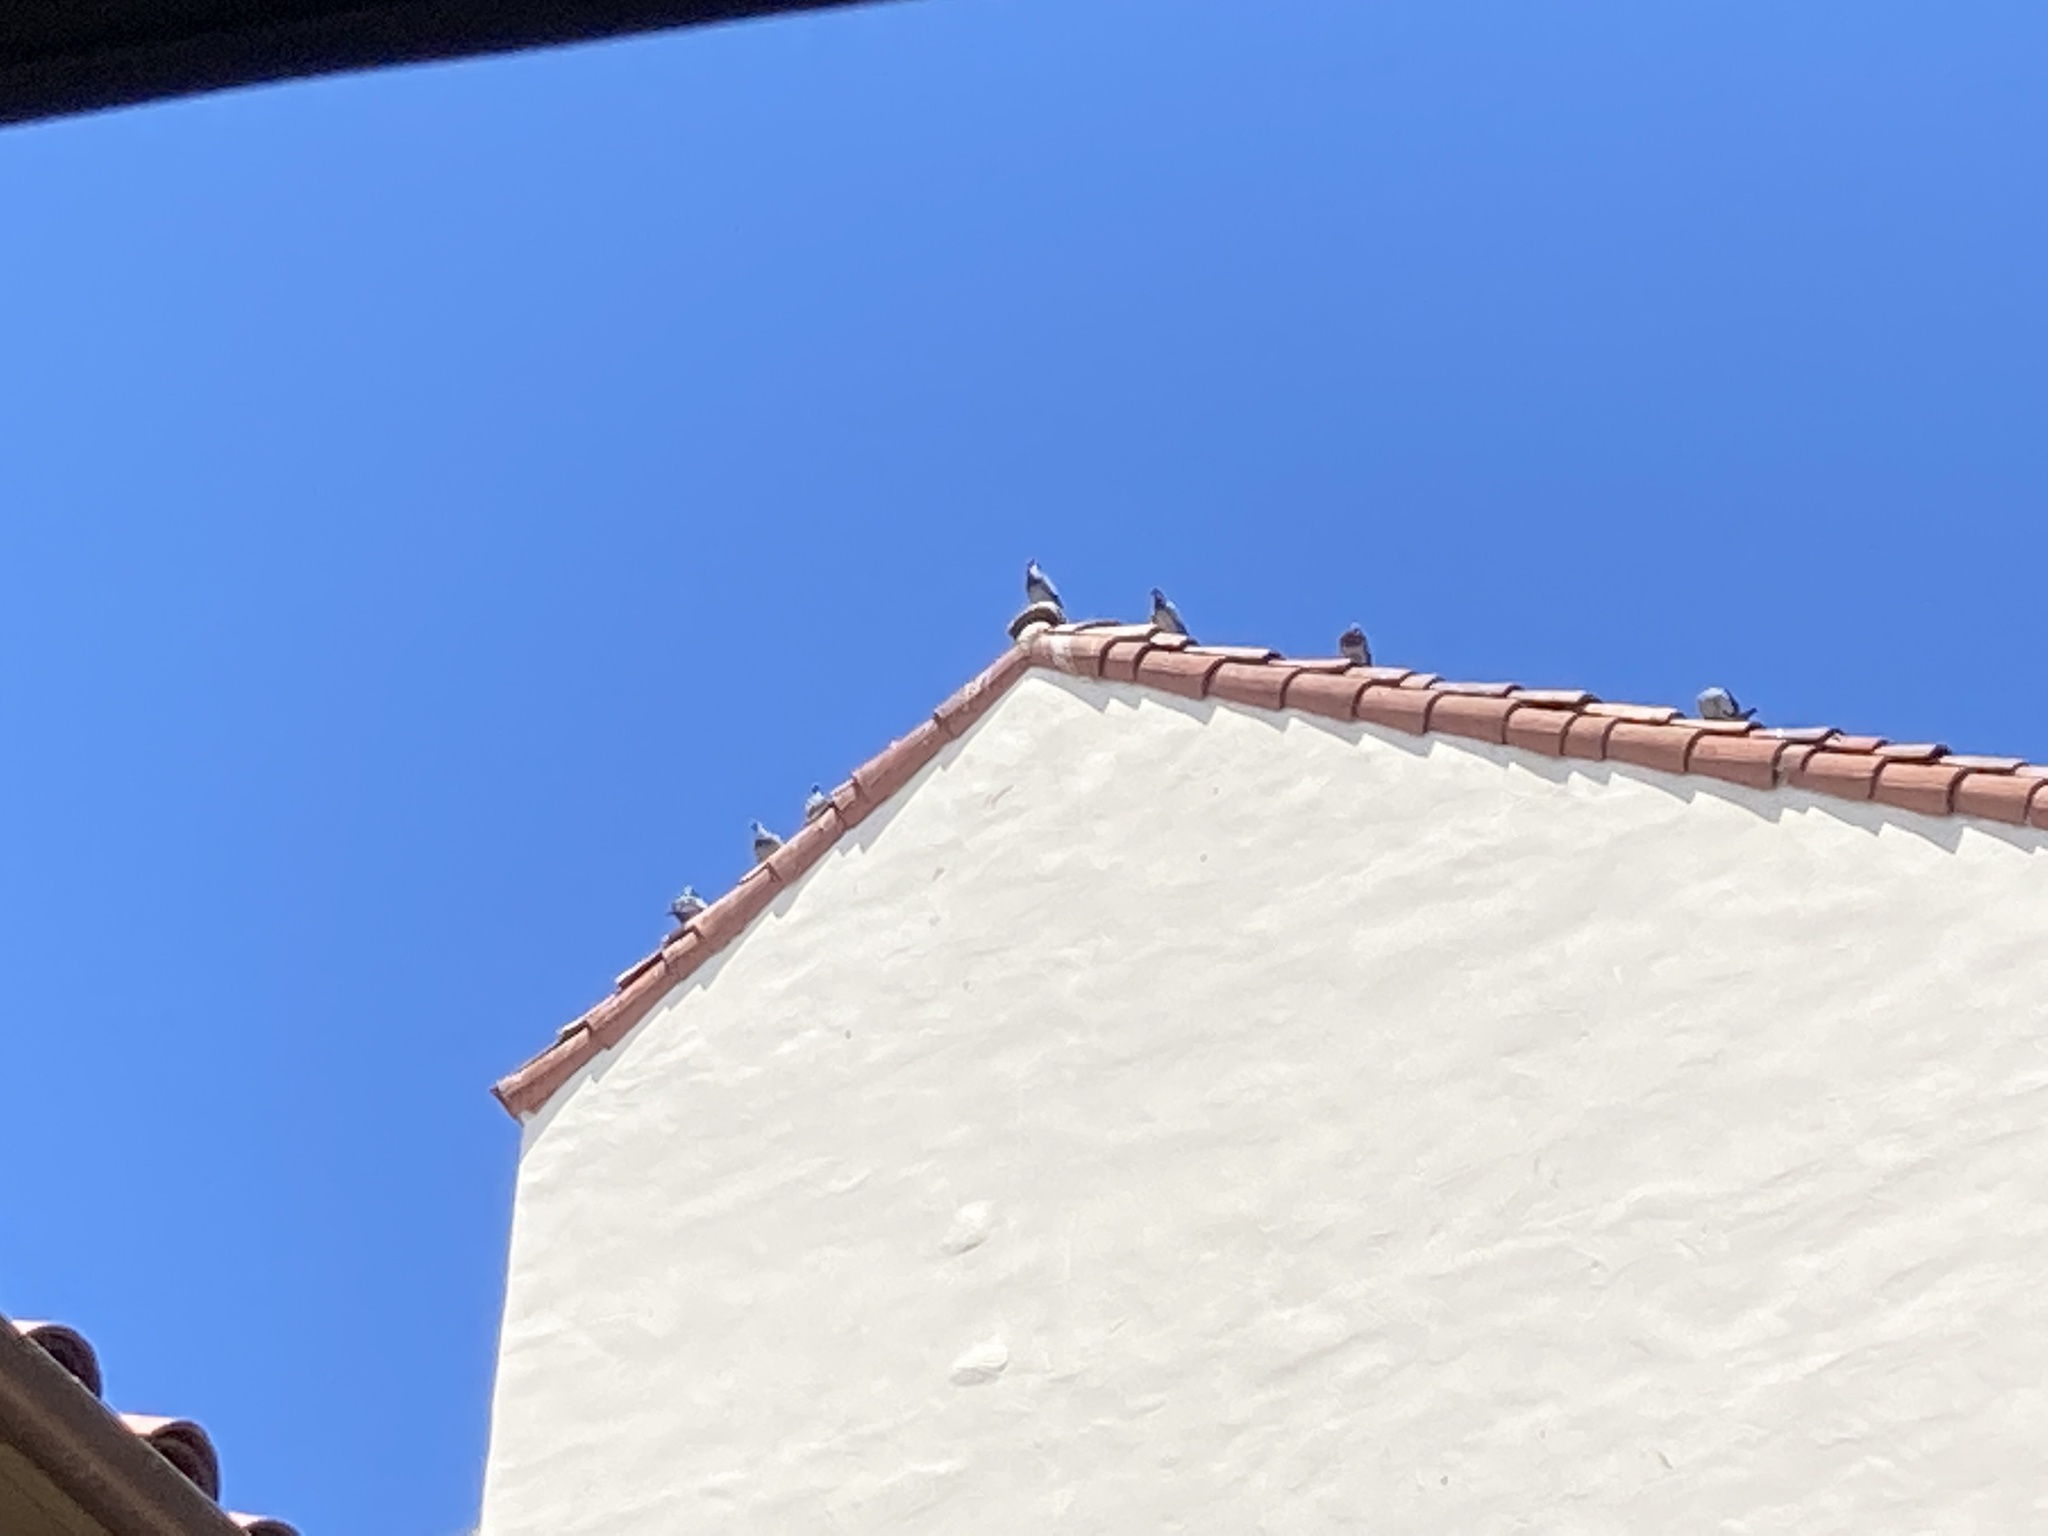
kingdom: Animalia
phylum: Chordata
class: Aves
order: Columbiformes
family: Columbidae
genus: Columba
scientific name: Columba livia
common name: Rock pigeon
